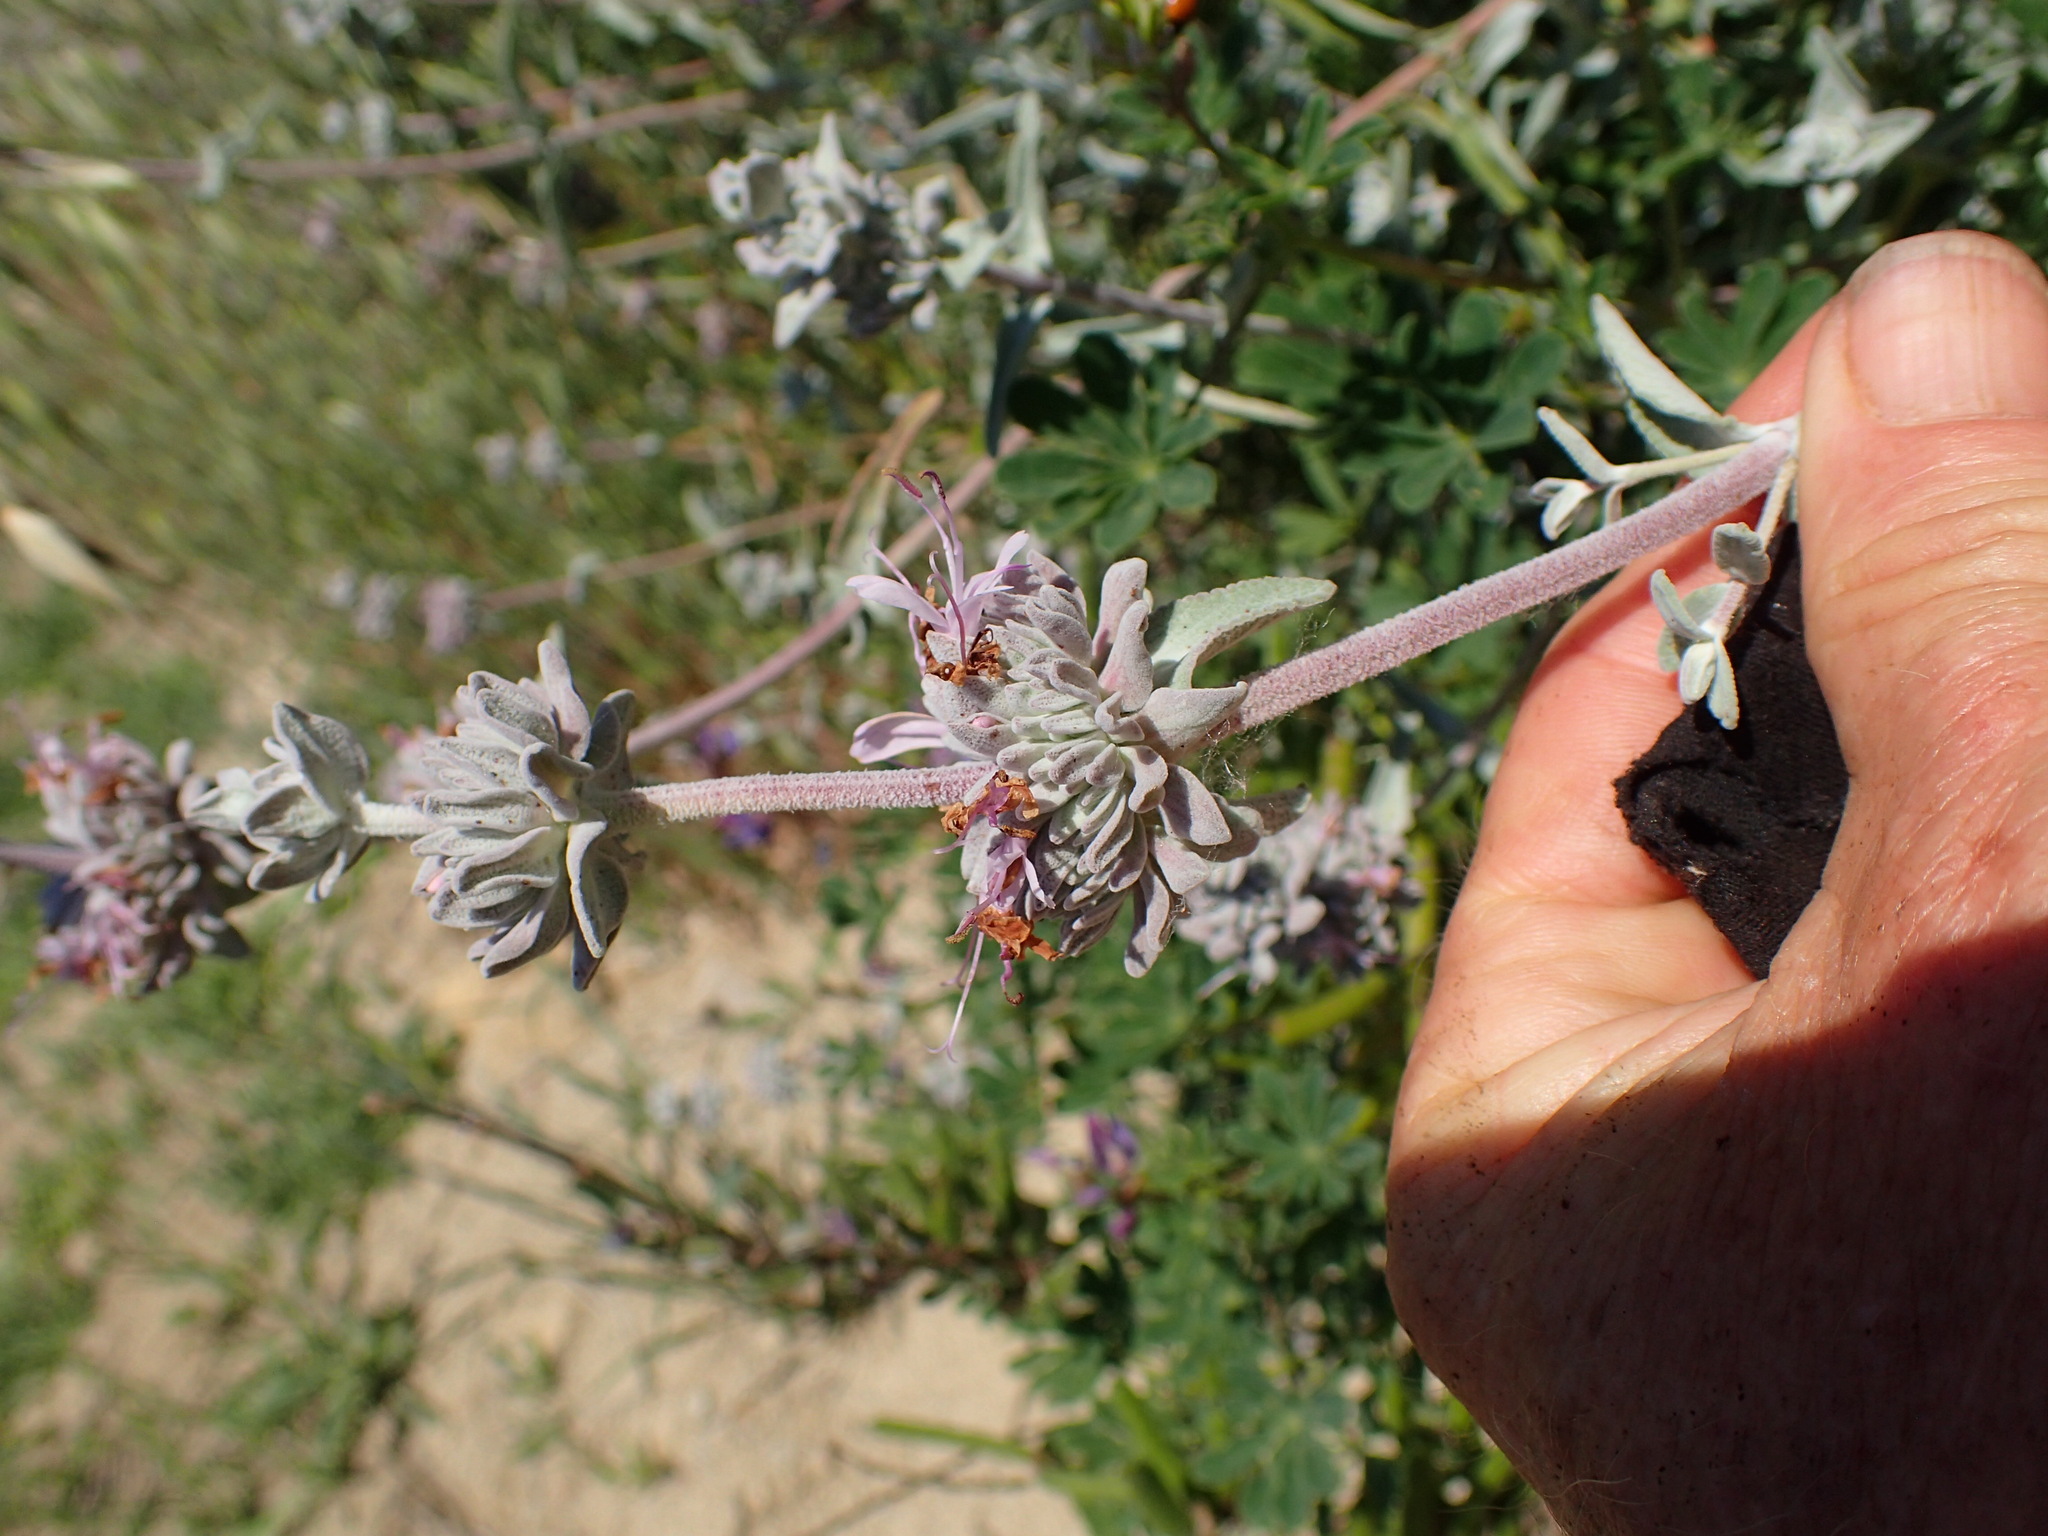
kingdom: Plantae
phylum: Tracheophyta
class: Magnoliopsida
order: Lamiales
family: Lamiaceae
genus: Salvia
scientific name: Salvia leucophylla
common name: Purple sage
